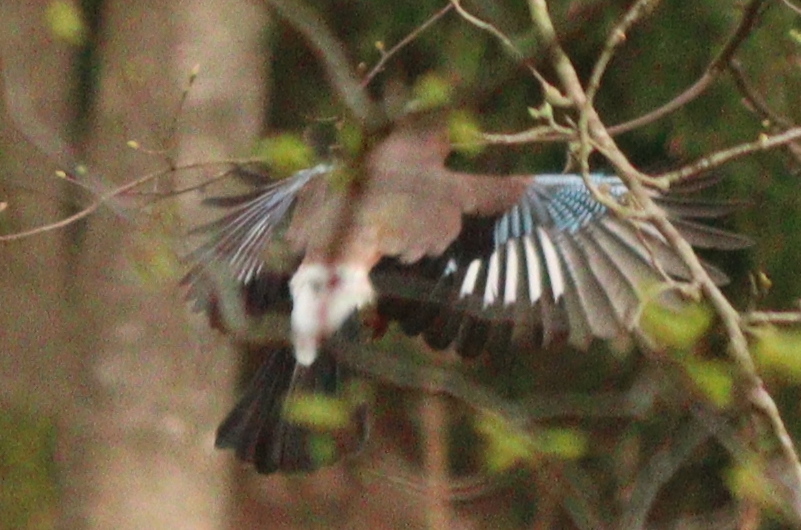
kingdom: Animalia
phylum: Chordata
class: Aves
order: Passeriformes
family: Corvidae
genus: Garrulus
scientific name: Garrulus glandarius
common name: Eurasian jay
